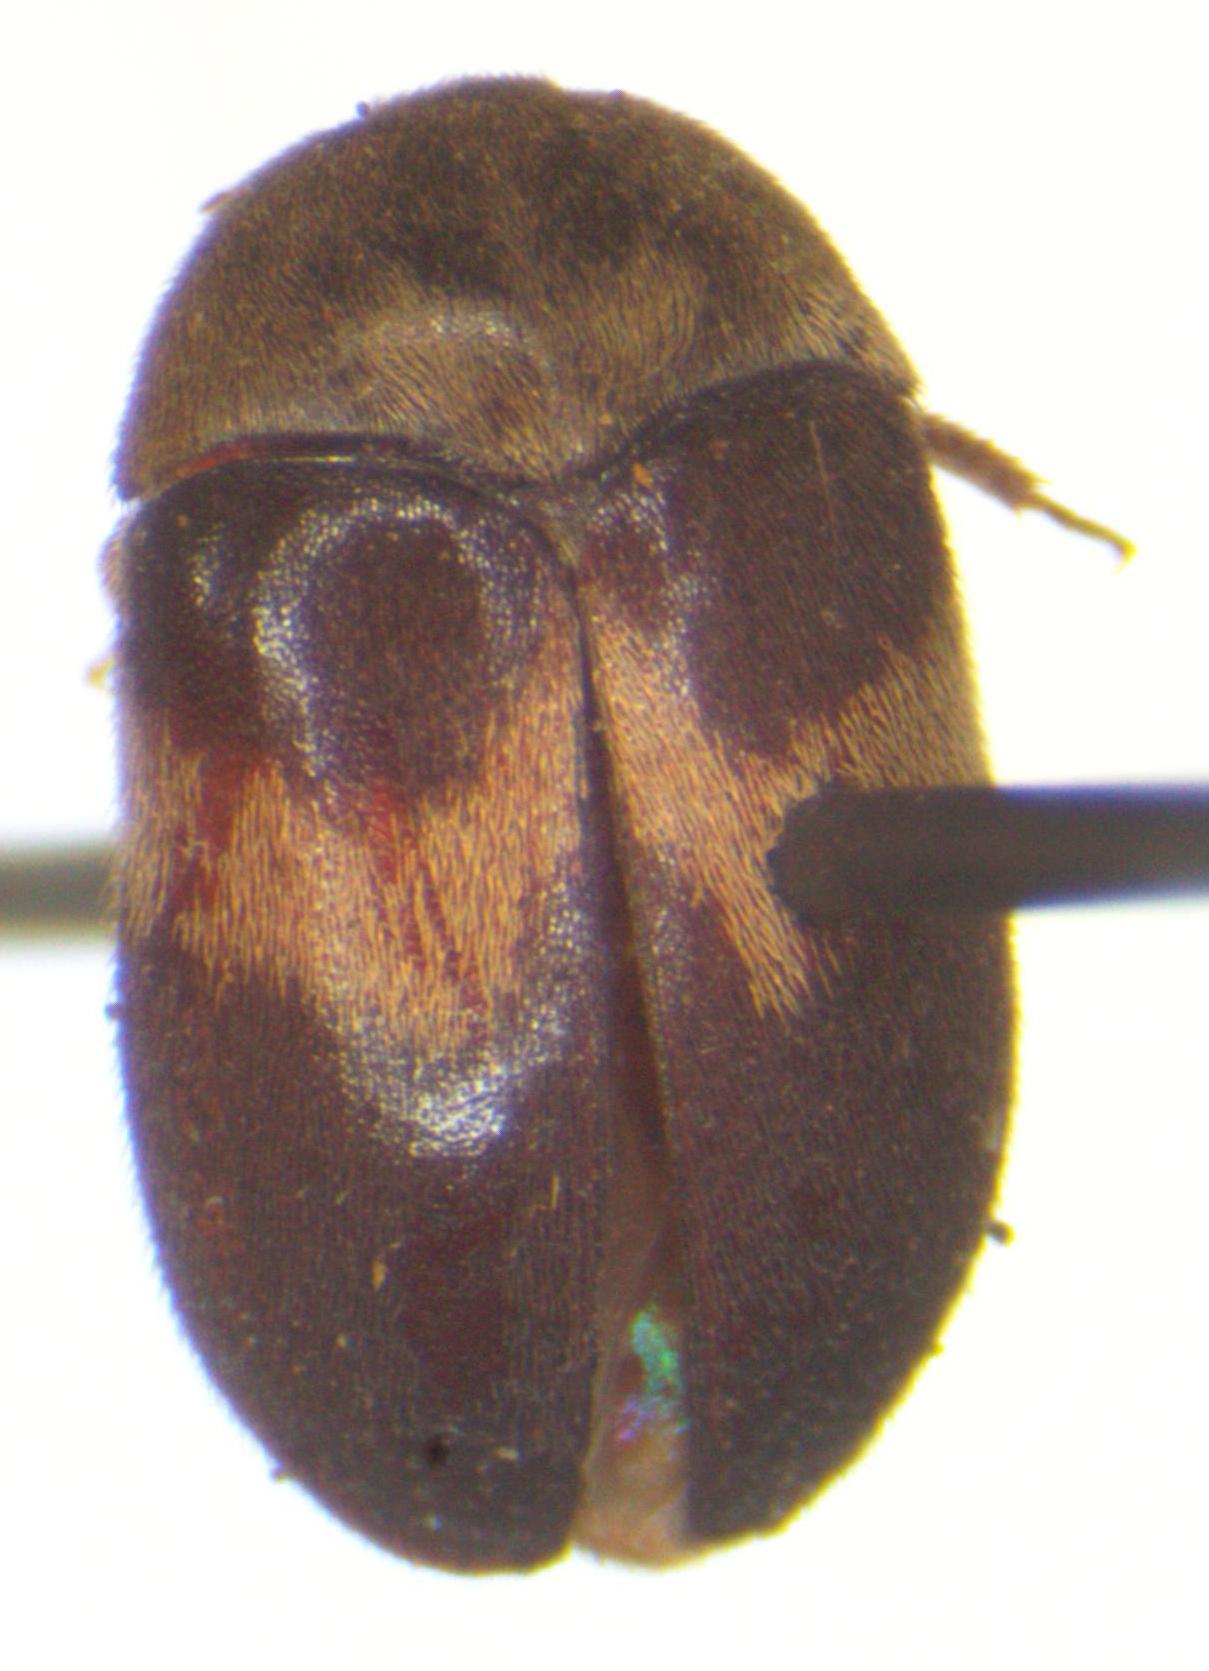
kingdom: Animalia
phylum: Arthropoda
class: Insecta
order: Coleoptera
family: Dermestidae
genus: Attagenus
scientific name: Attagenus fasciatus
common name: Wardrobe beetle
